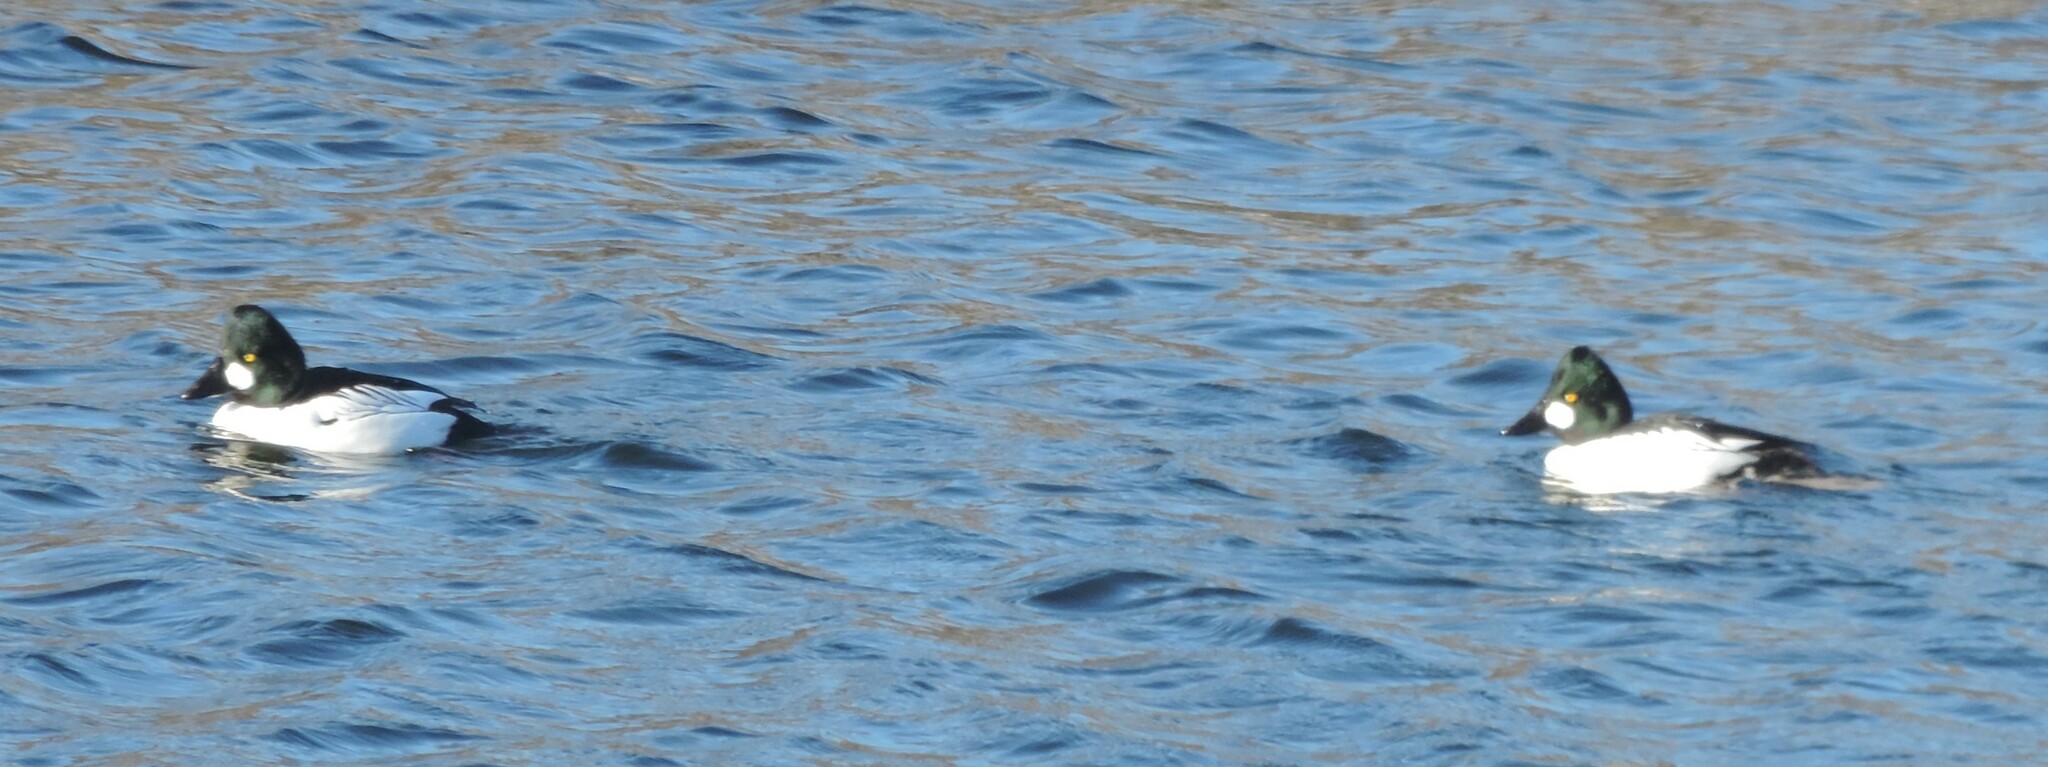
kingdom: Animalia
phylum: Chordata
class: Aves
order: Anseriformes
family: Anatidae
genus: Bucephala
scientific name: Bucephala clangula
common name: Common goldeneye
